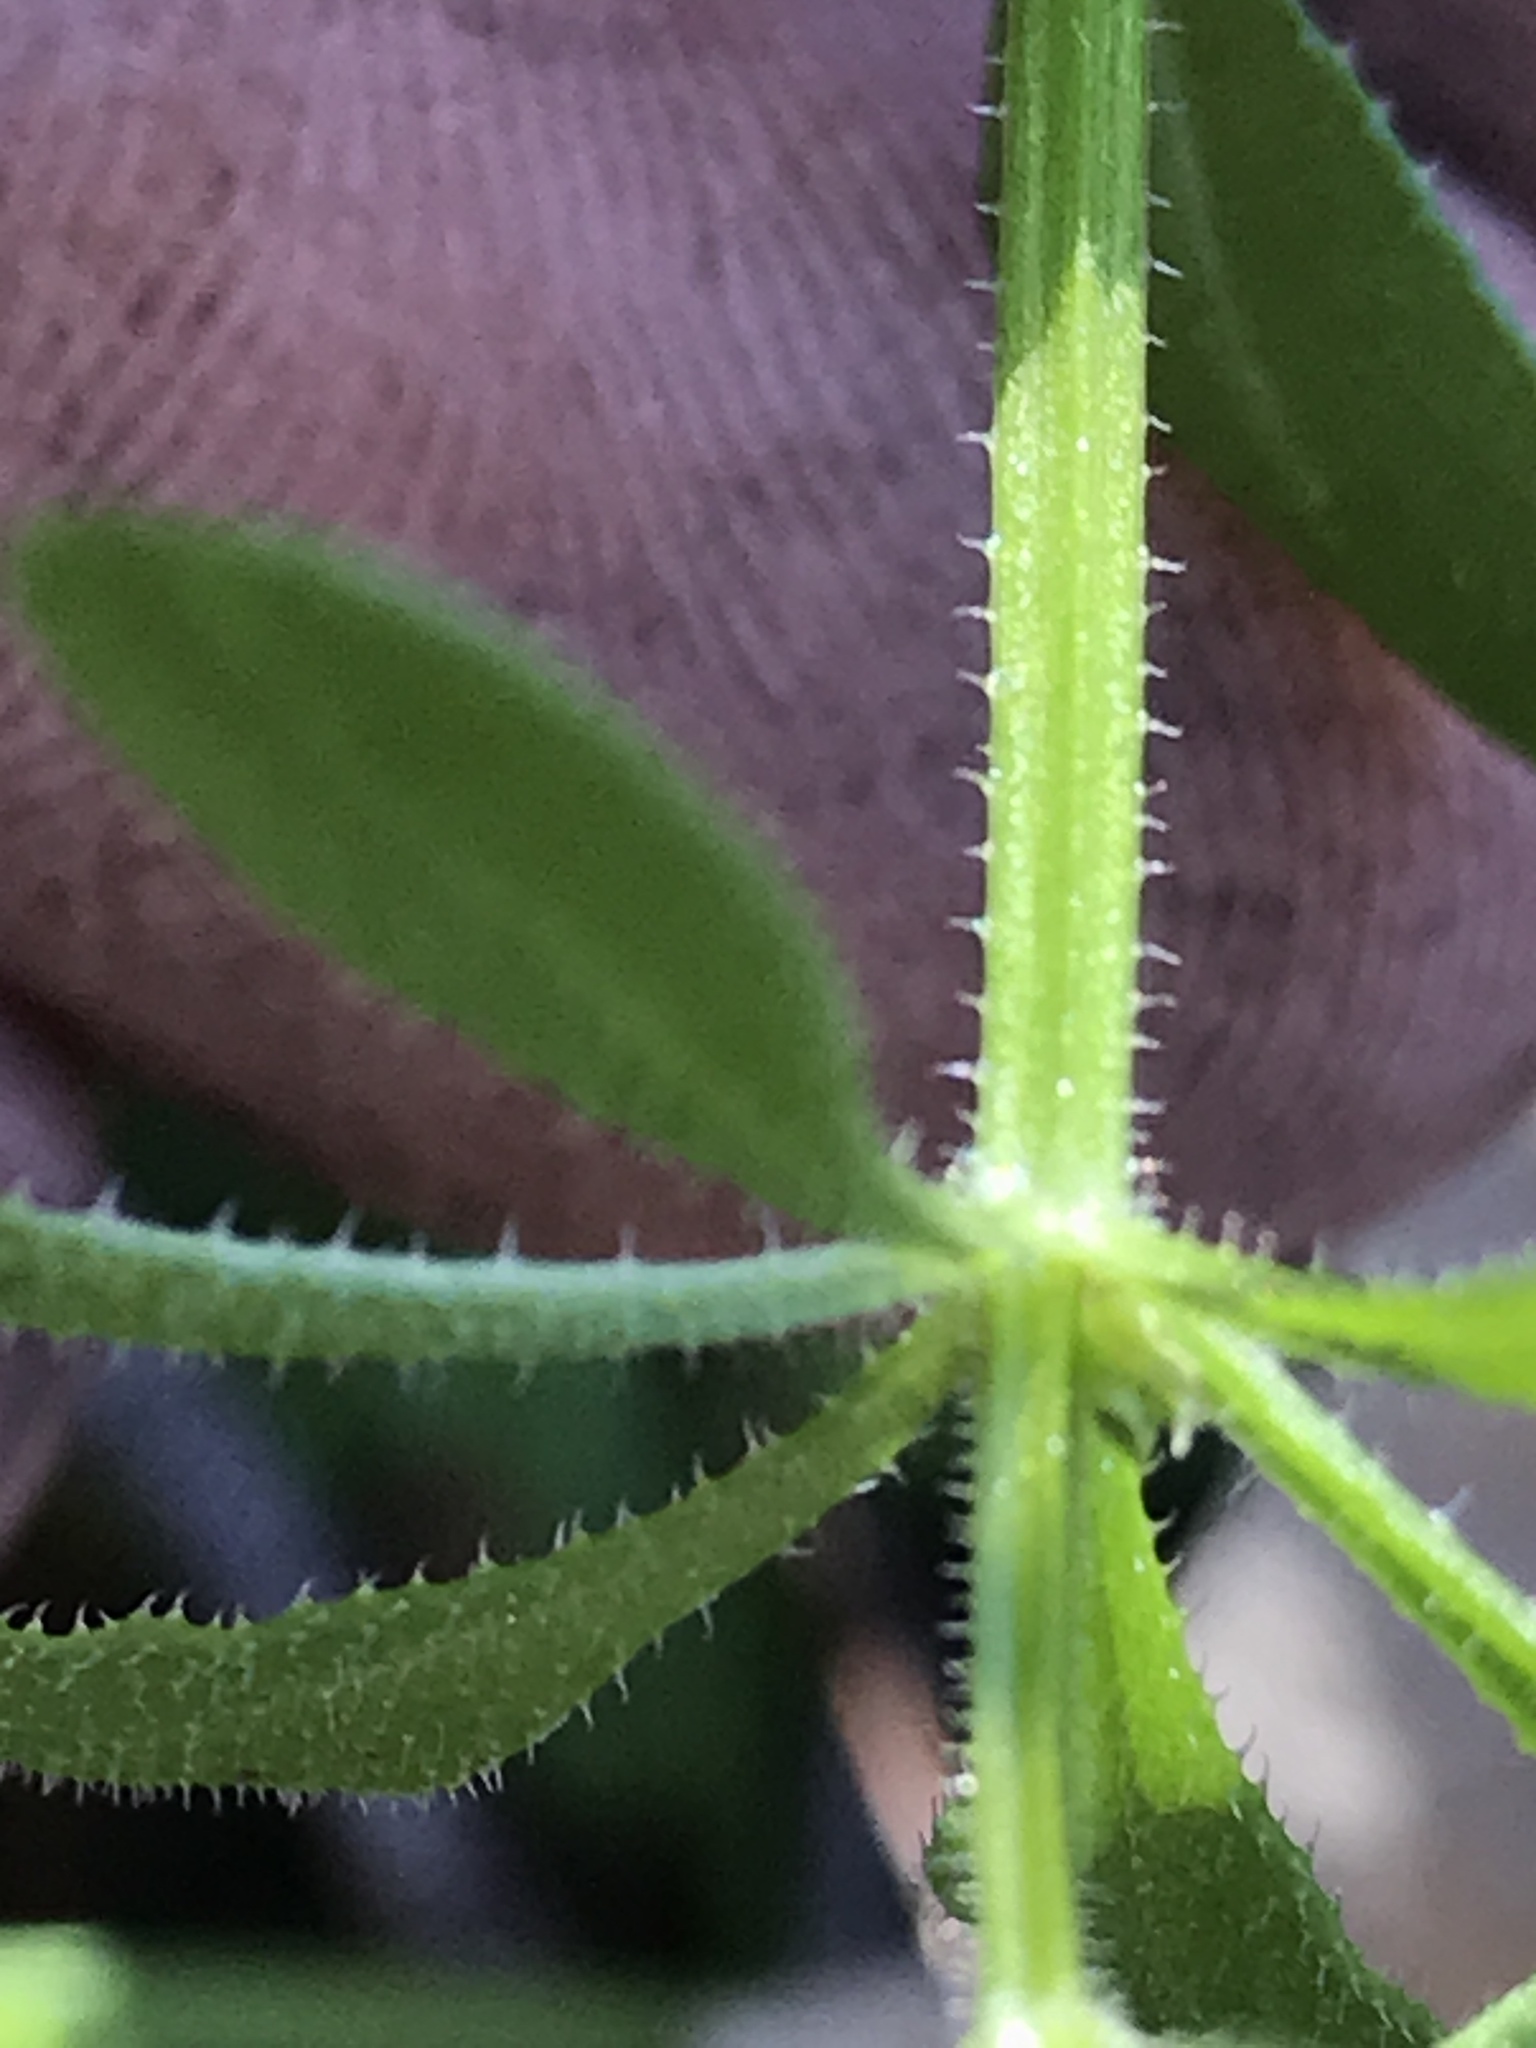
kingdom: Plantae
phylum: Tracheophyta
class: Magnoliopsida
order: Gentianales
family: Rubiaceae
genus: Galium
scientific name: Galium aparine
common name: Cleavers
